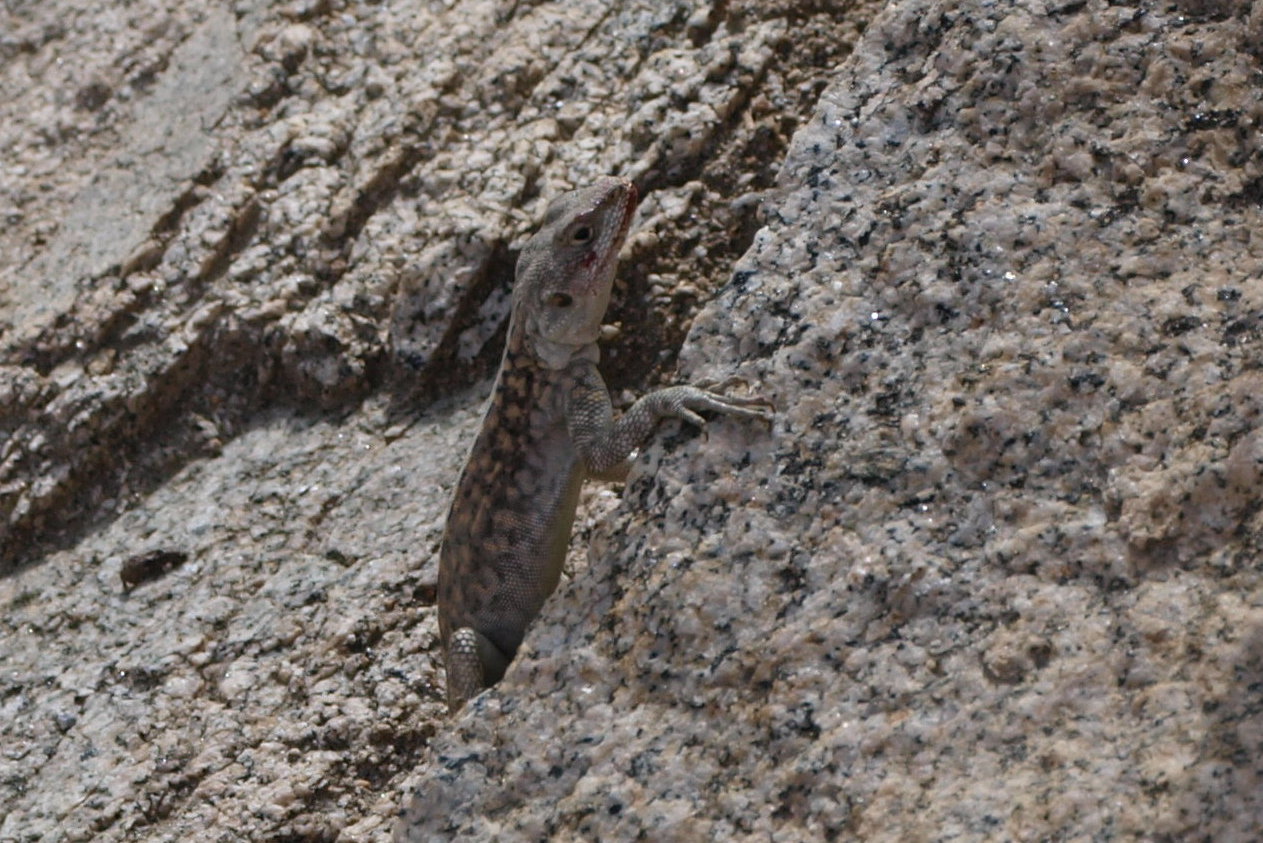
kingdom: Animalia
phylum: Chordata
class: Squamata
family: Agamidae
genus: Paralaudakia
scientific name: Paralaudakia himalayana
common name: Himalayan agama
